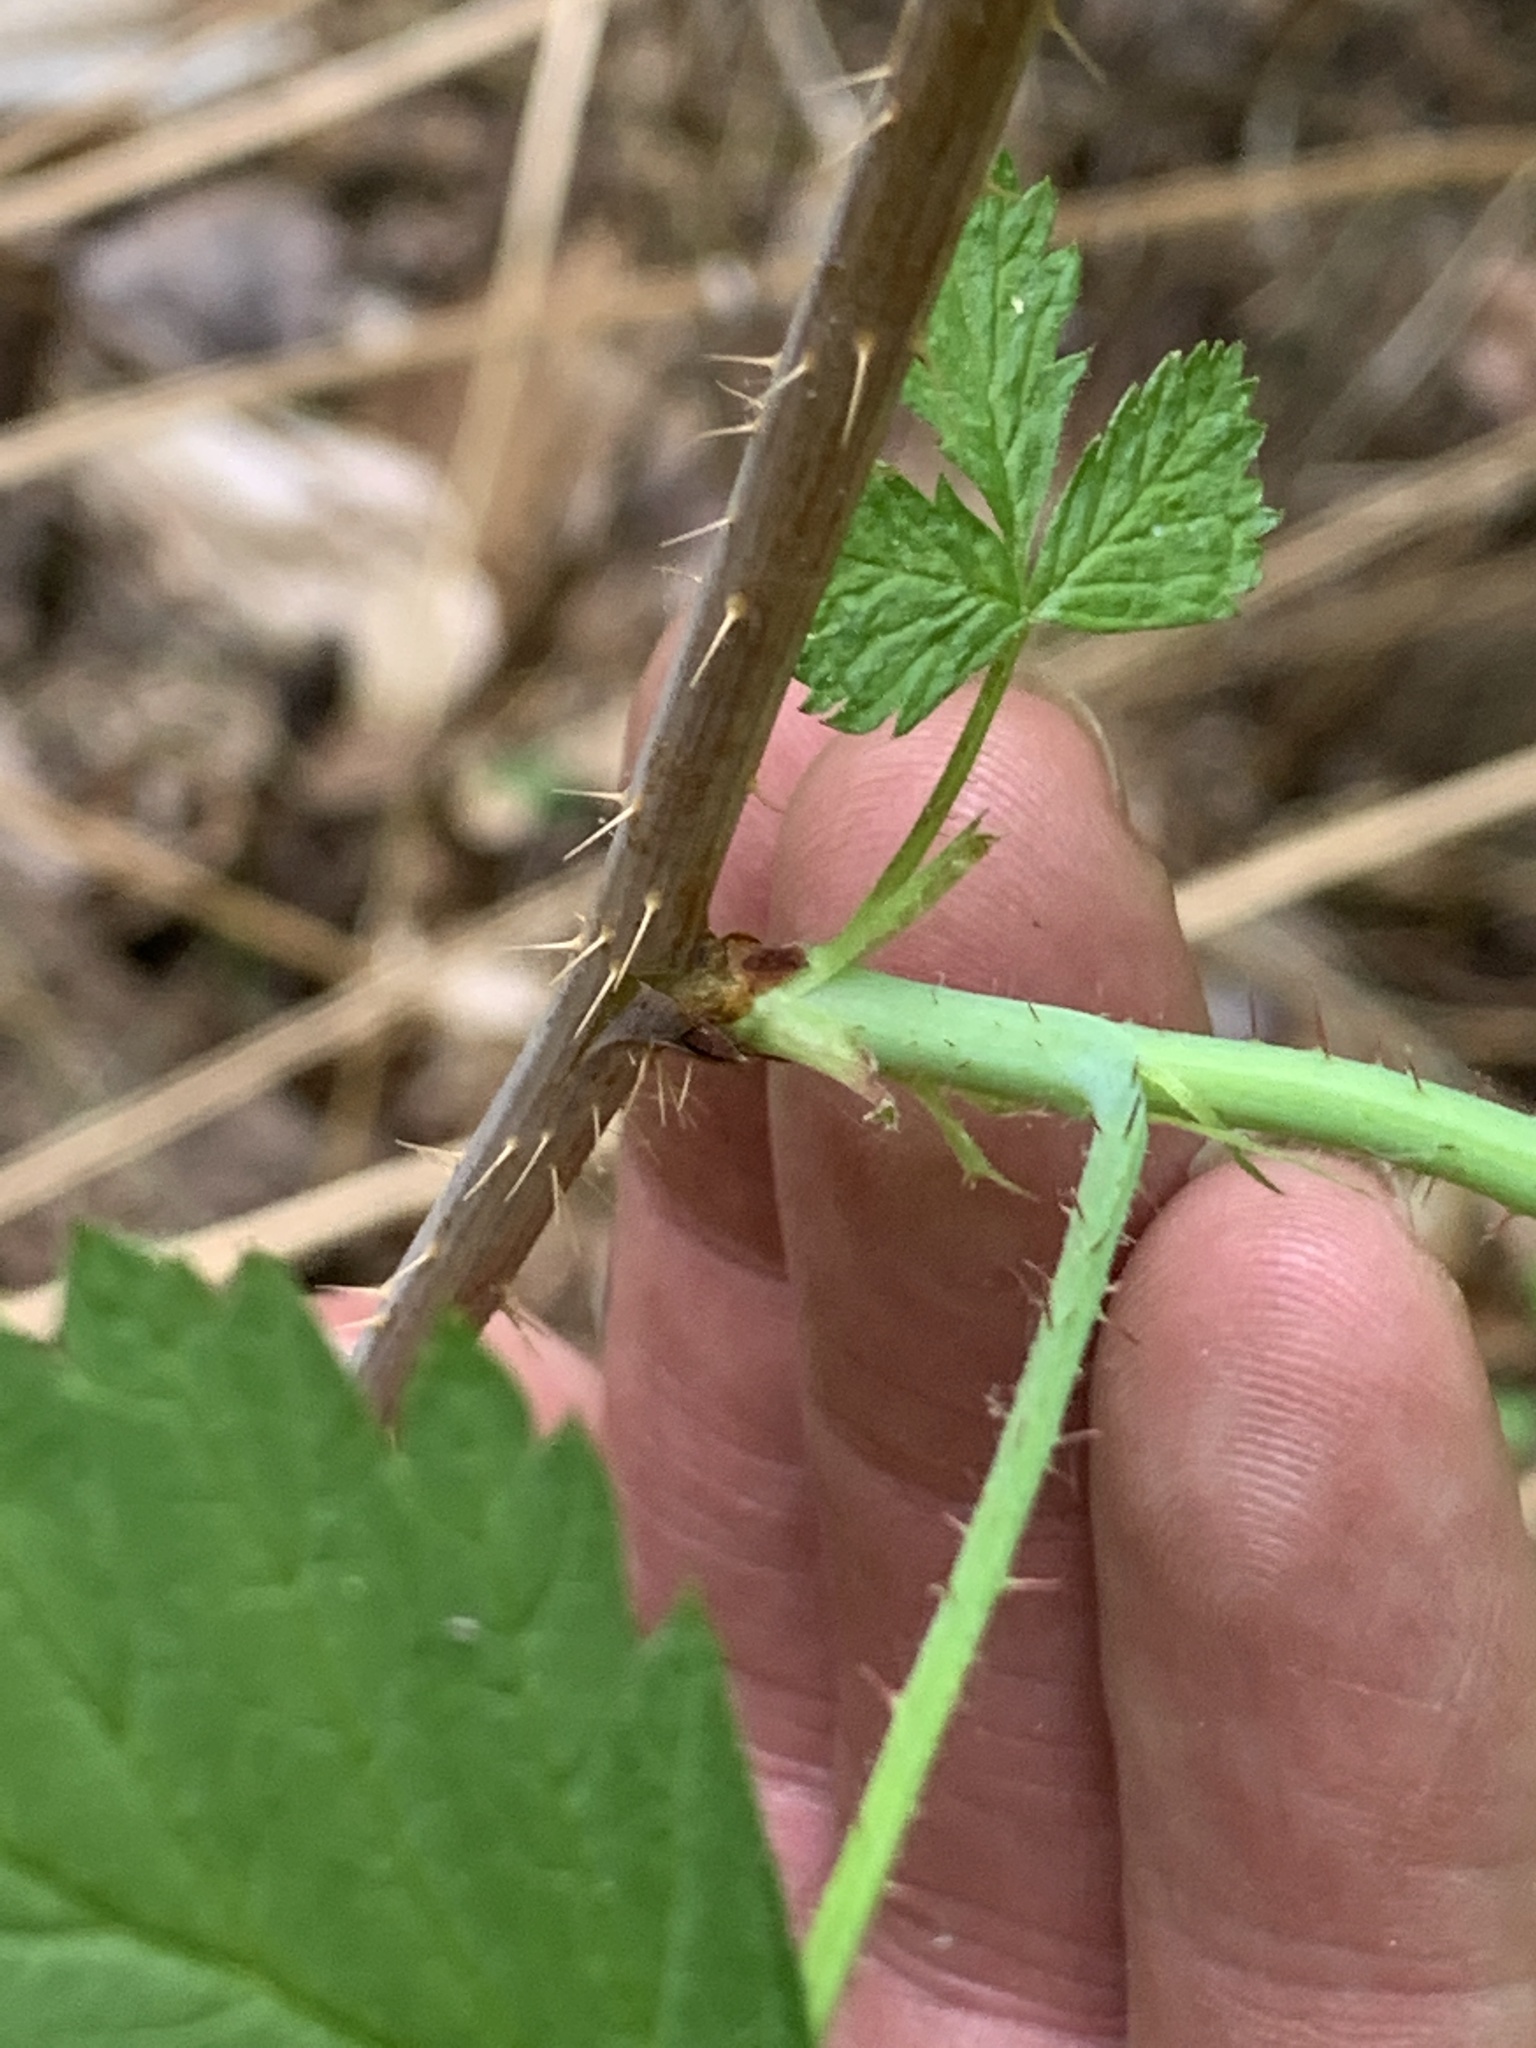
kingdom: Plantae
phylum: Tracheophyta
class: Magnoliopsida
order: Rosales
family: Rosaceae
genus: Rubus
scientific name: Rubus idaeus
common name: Raspberry
